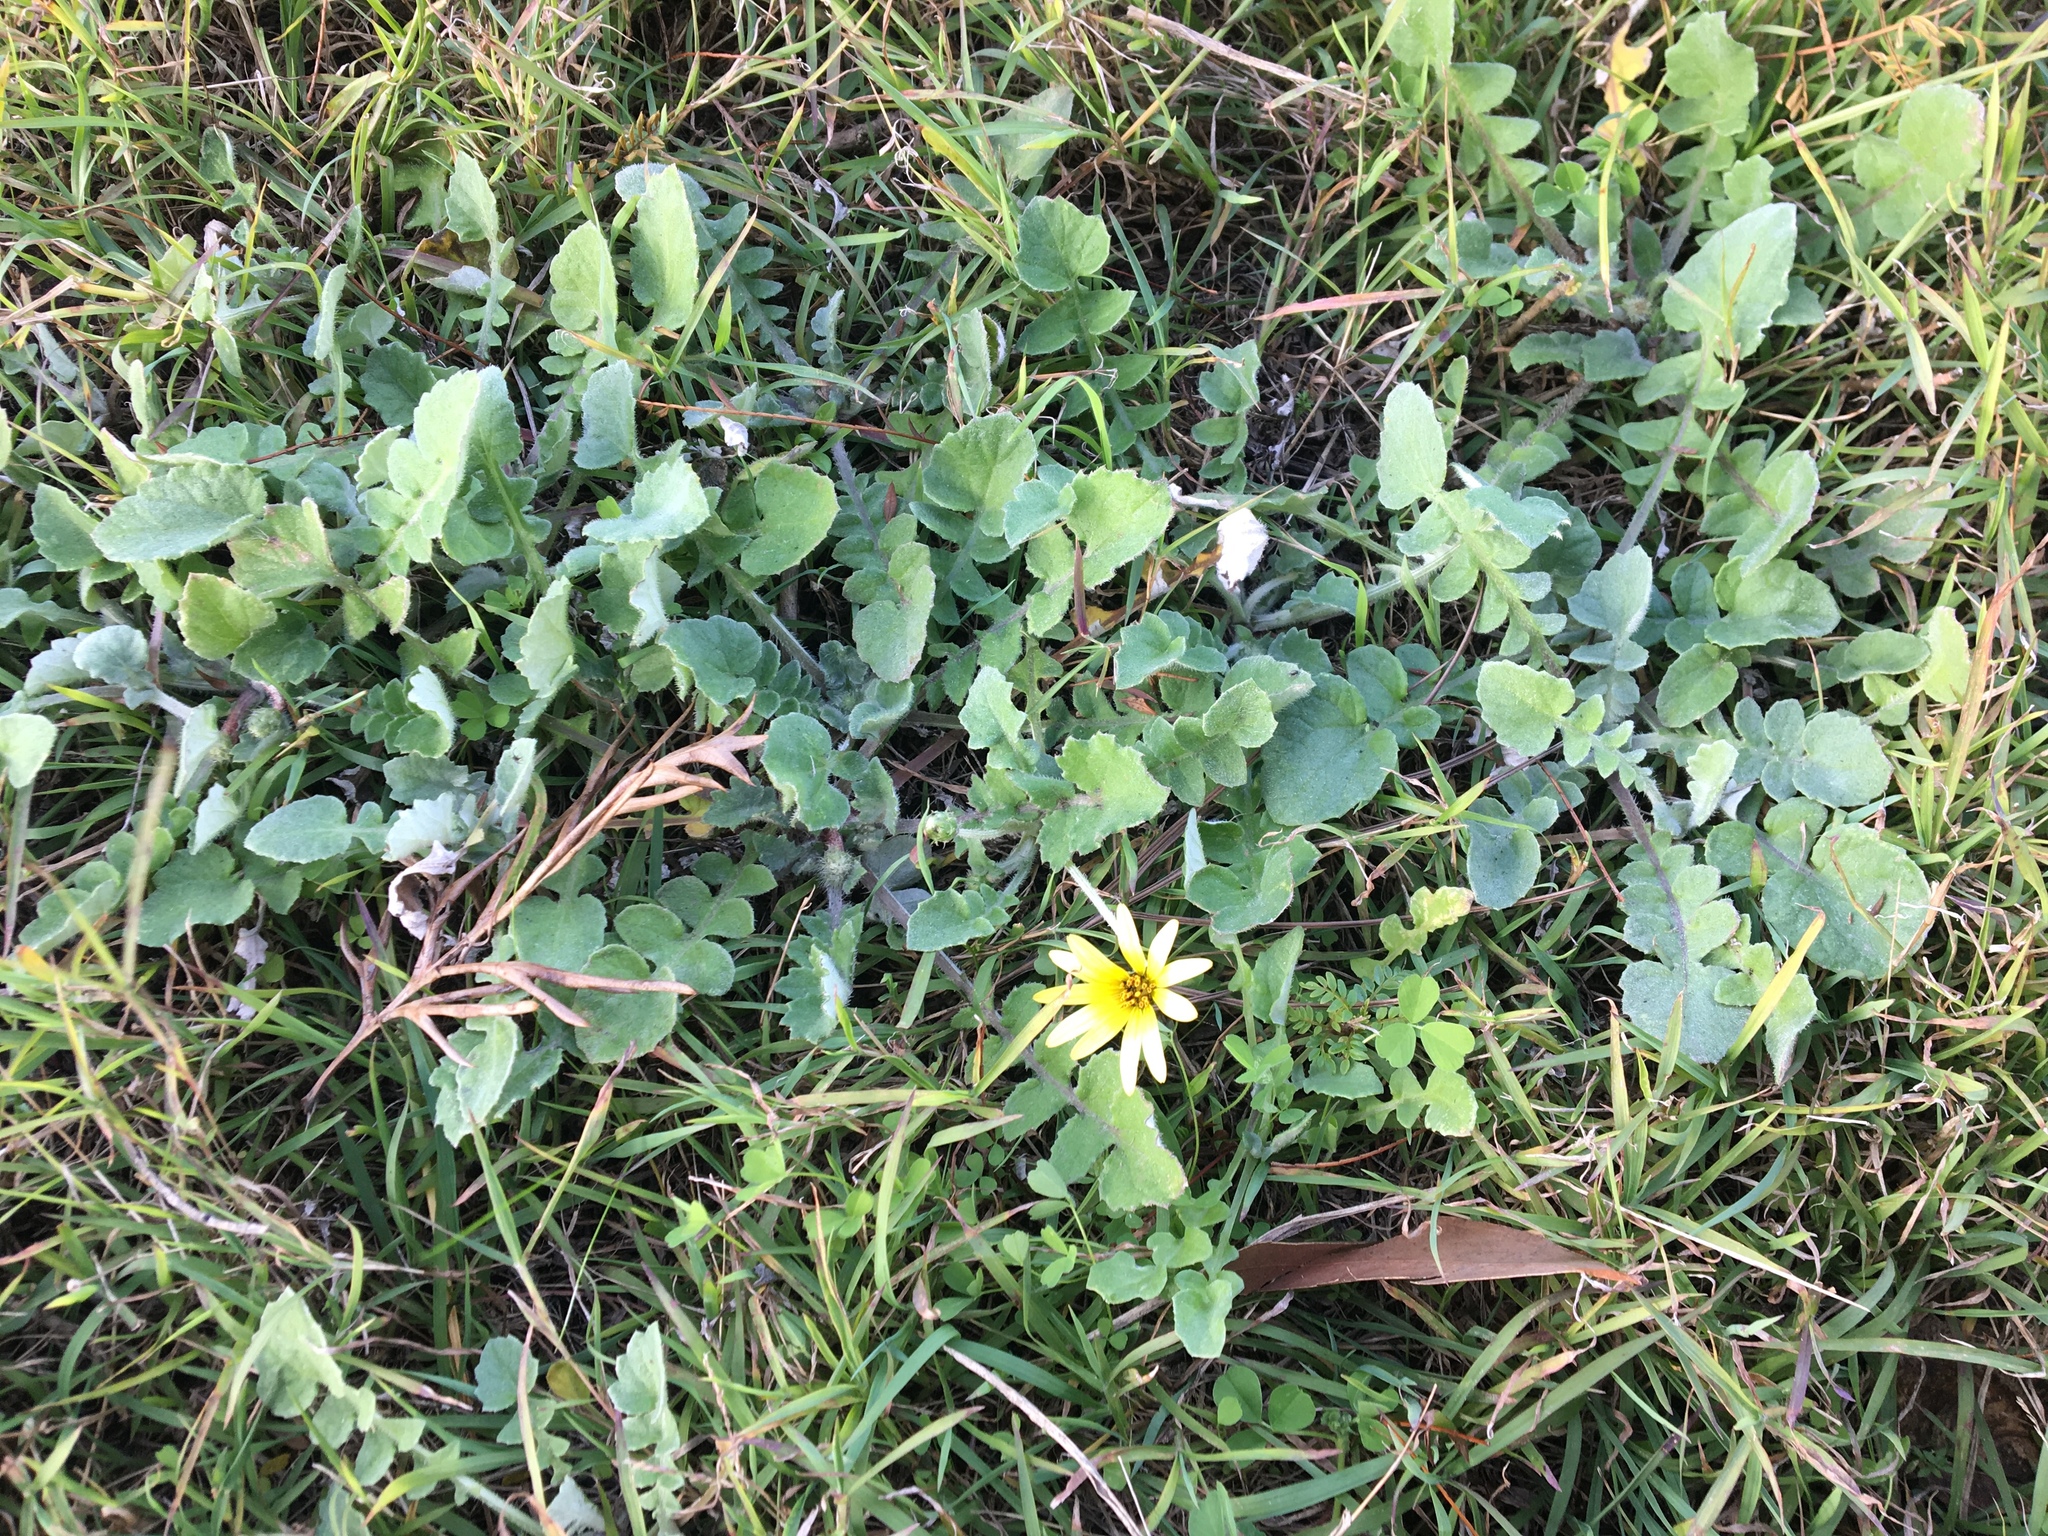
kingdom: Plantae
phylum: Tracheophyta
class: Magnoliopsida
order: Asterales
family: Asteraceae
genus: Arctotheca
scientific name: Arctotheca calendula
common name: Capeweed
